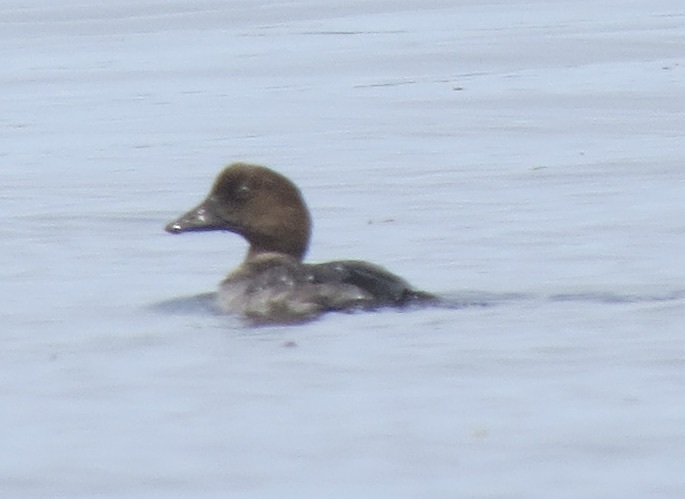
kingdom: Animalia
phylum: Chordata
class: Aves
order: Anseriformes
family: Anatidae
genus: Bucephala
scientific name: Bucephala clangula
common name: Common goldeneye
